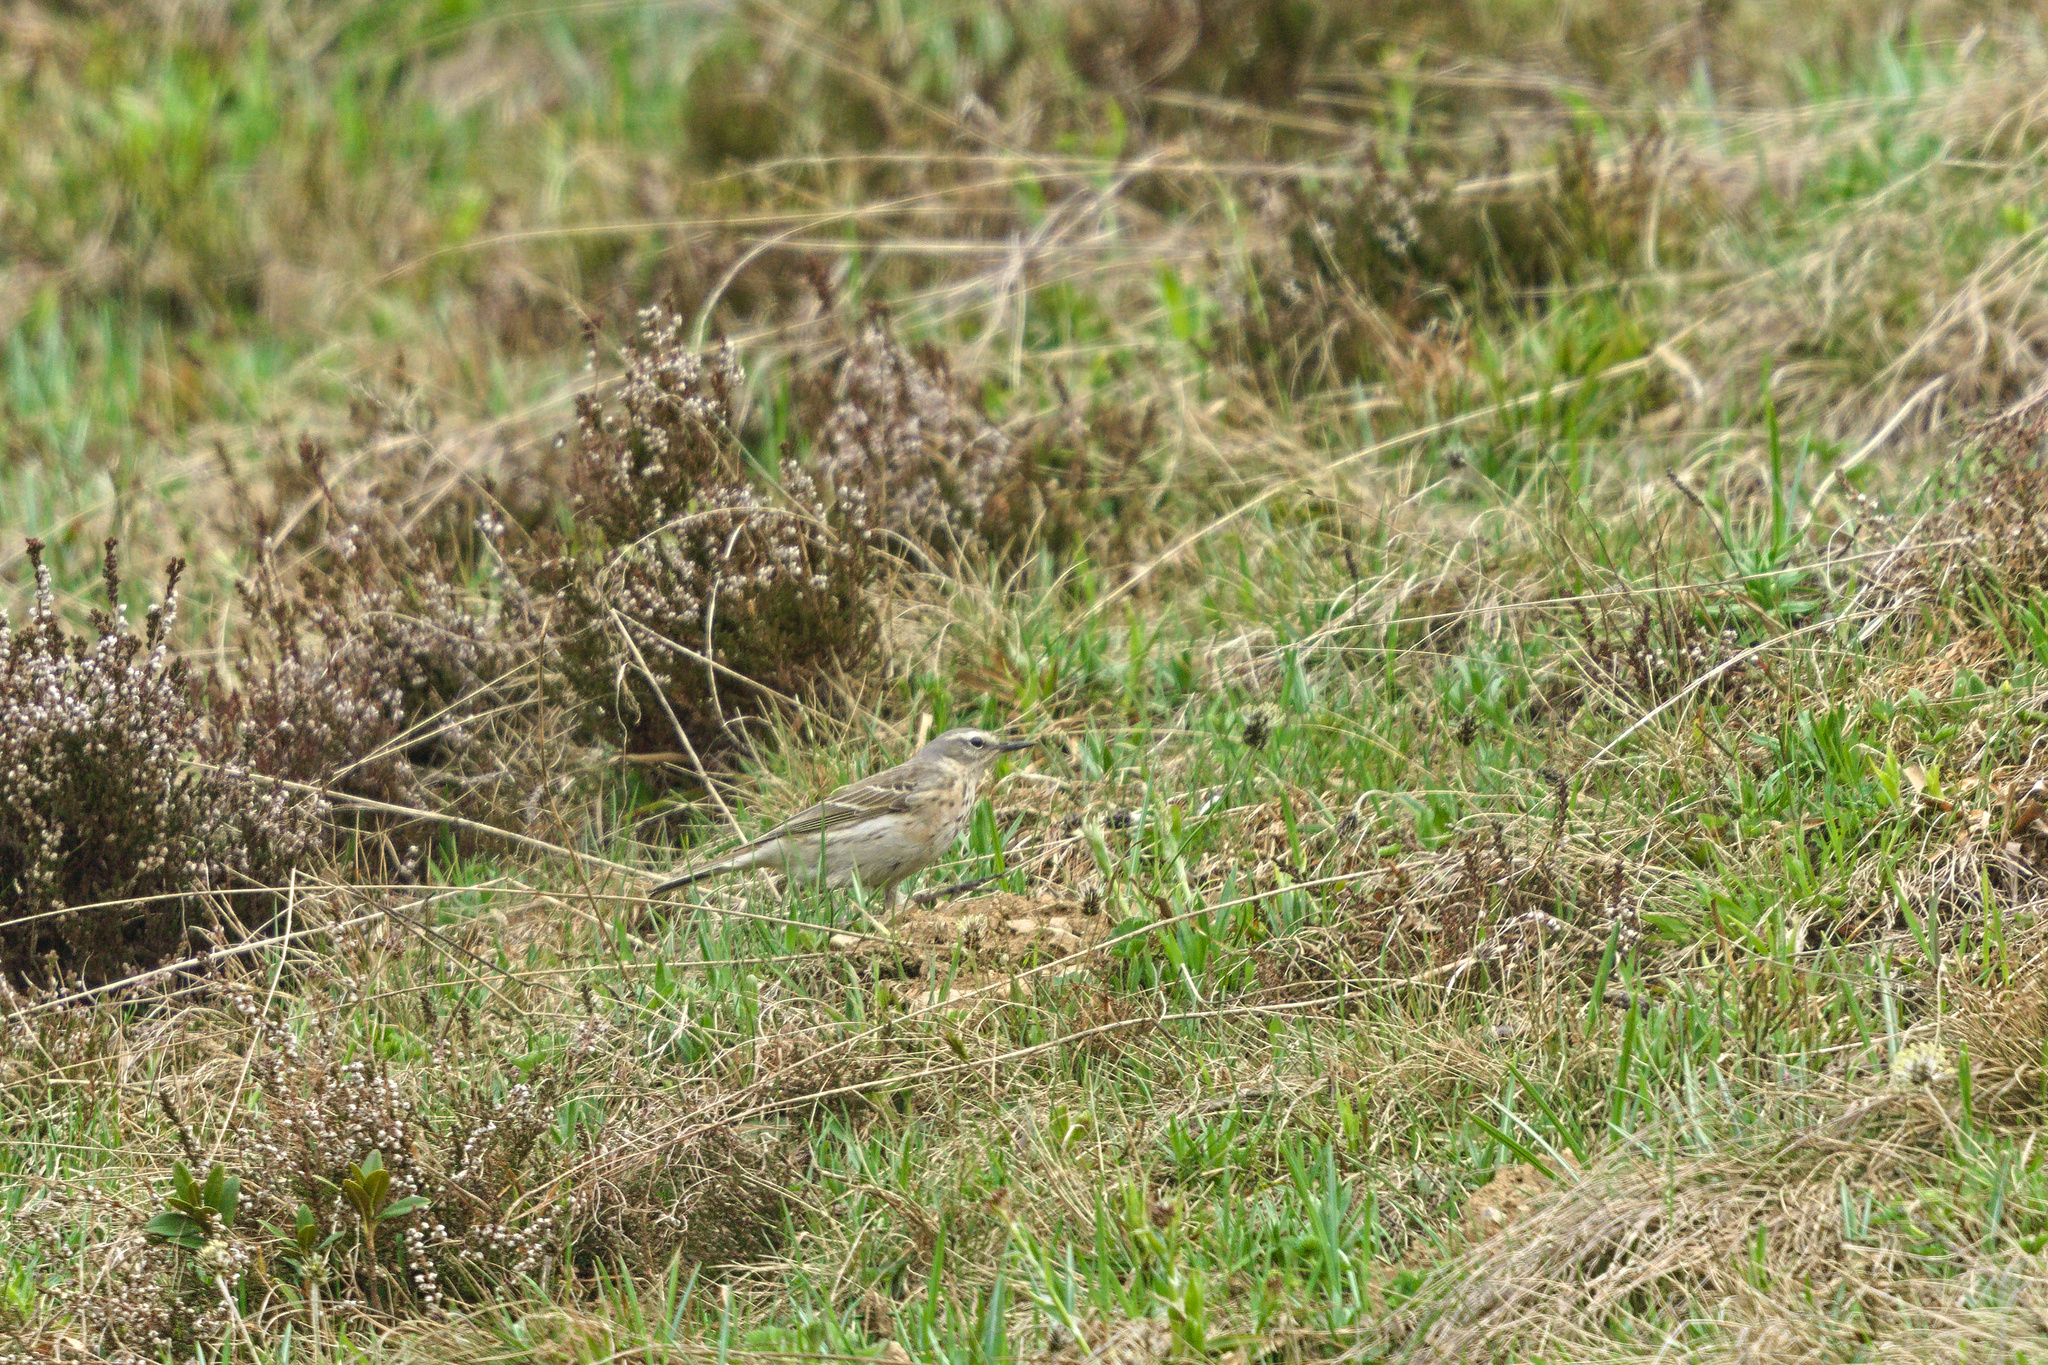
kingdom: Animalia
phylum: Chordata
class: Aves
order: Passeriformes
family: Motacillidae
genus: Anthus
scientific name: Anthus spinoletta
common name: Water pipit
